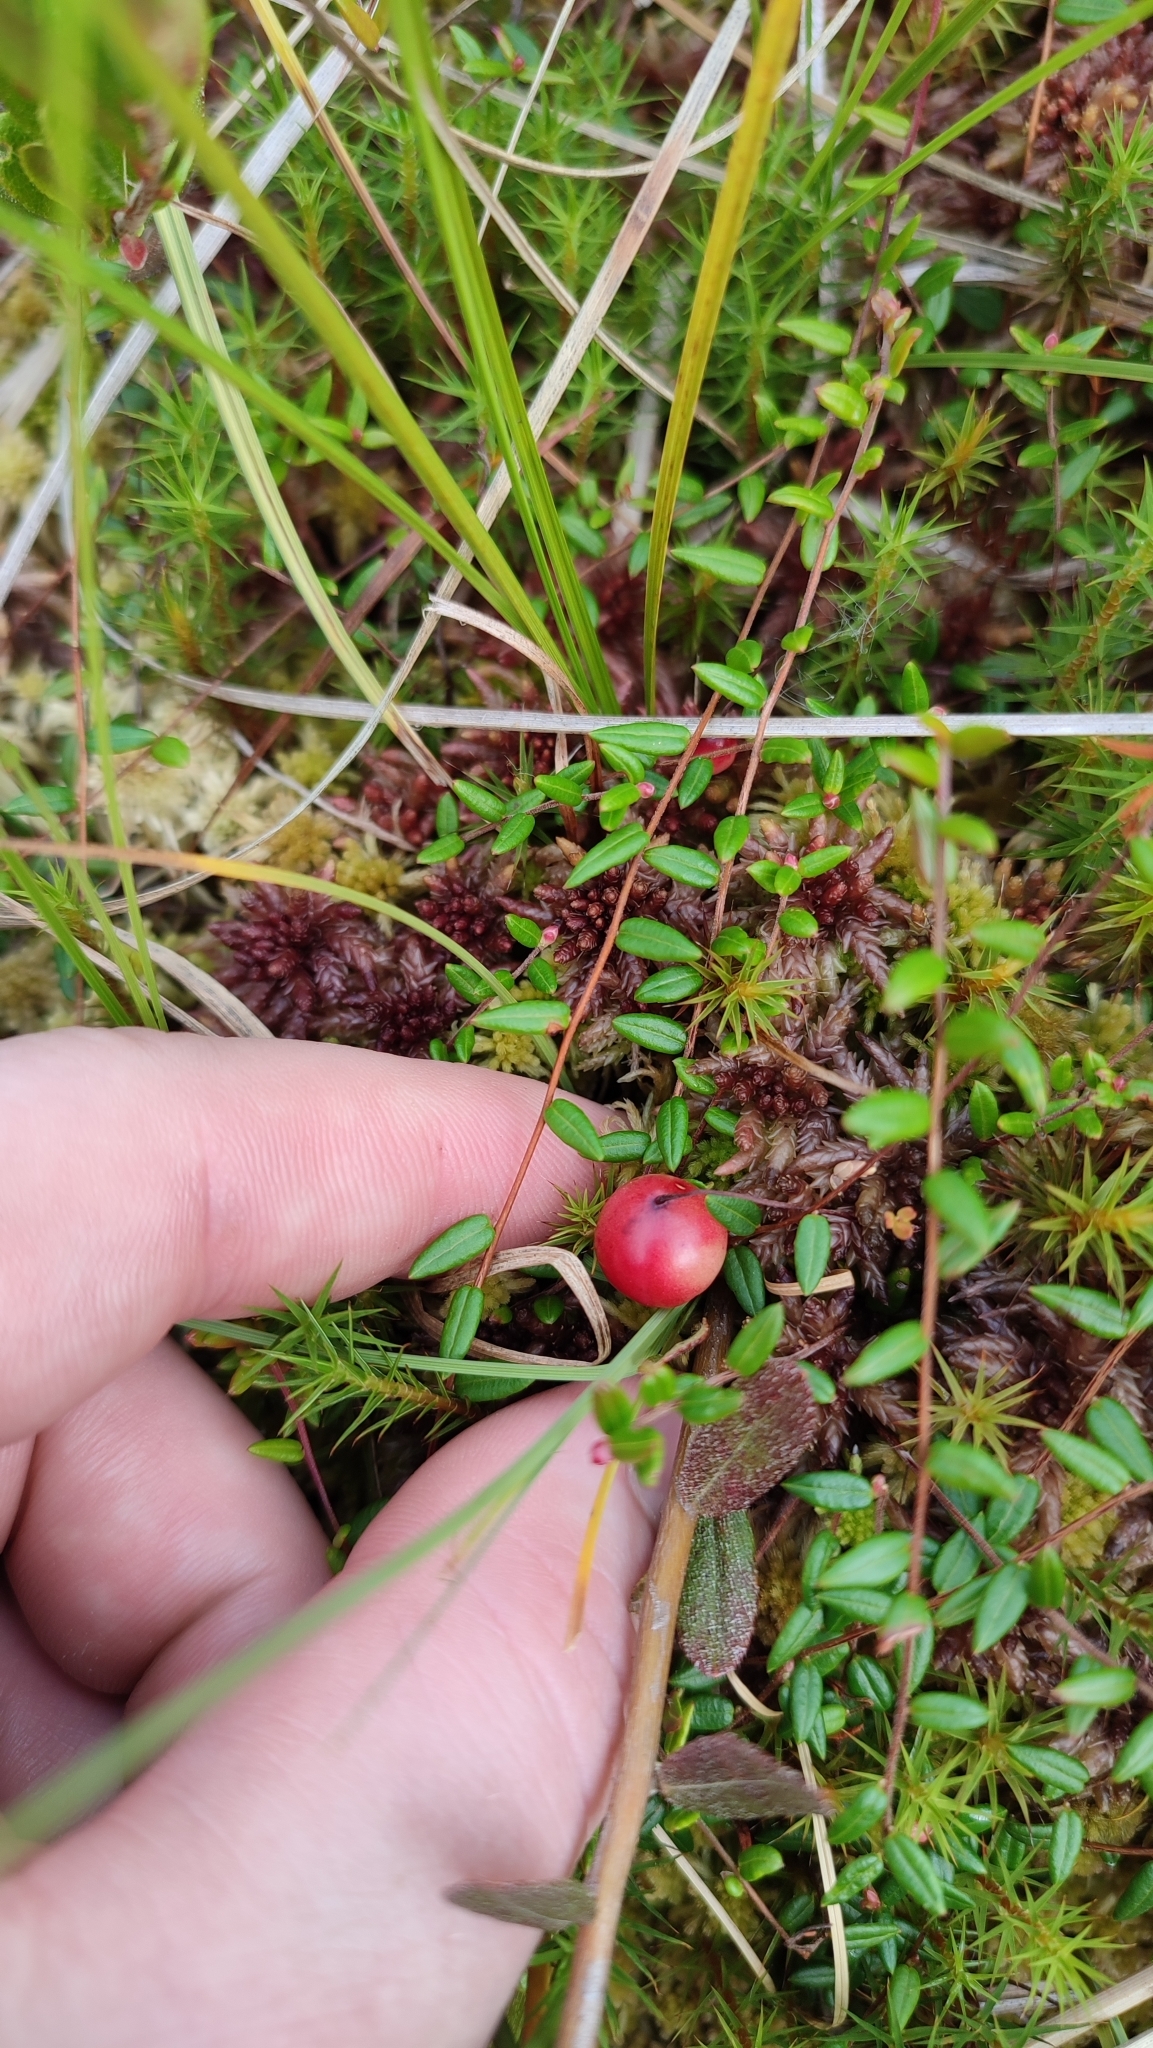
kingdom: Plantae
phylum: Tracheophyta
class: Magnoliopsida
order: Ericales
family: Ericaceae
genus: Vaccinium
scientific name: Vaccinium oxycoccos
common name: Cranberry
